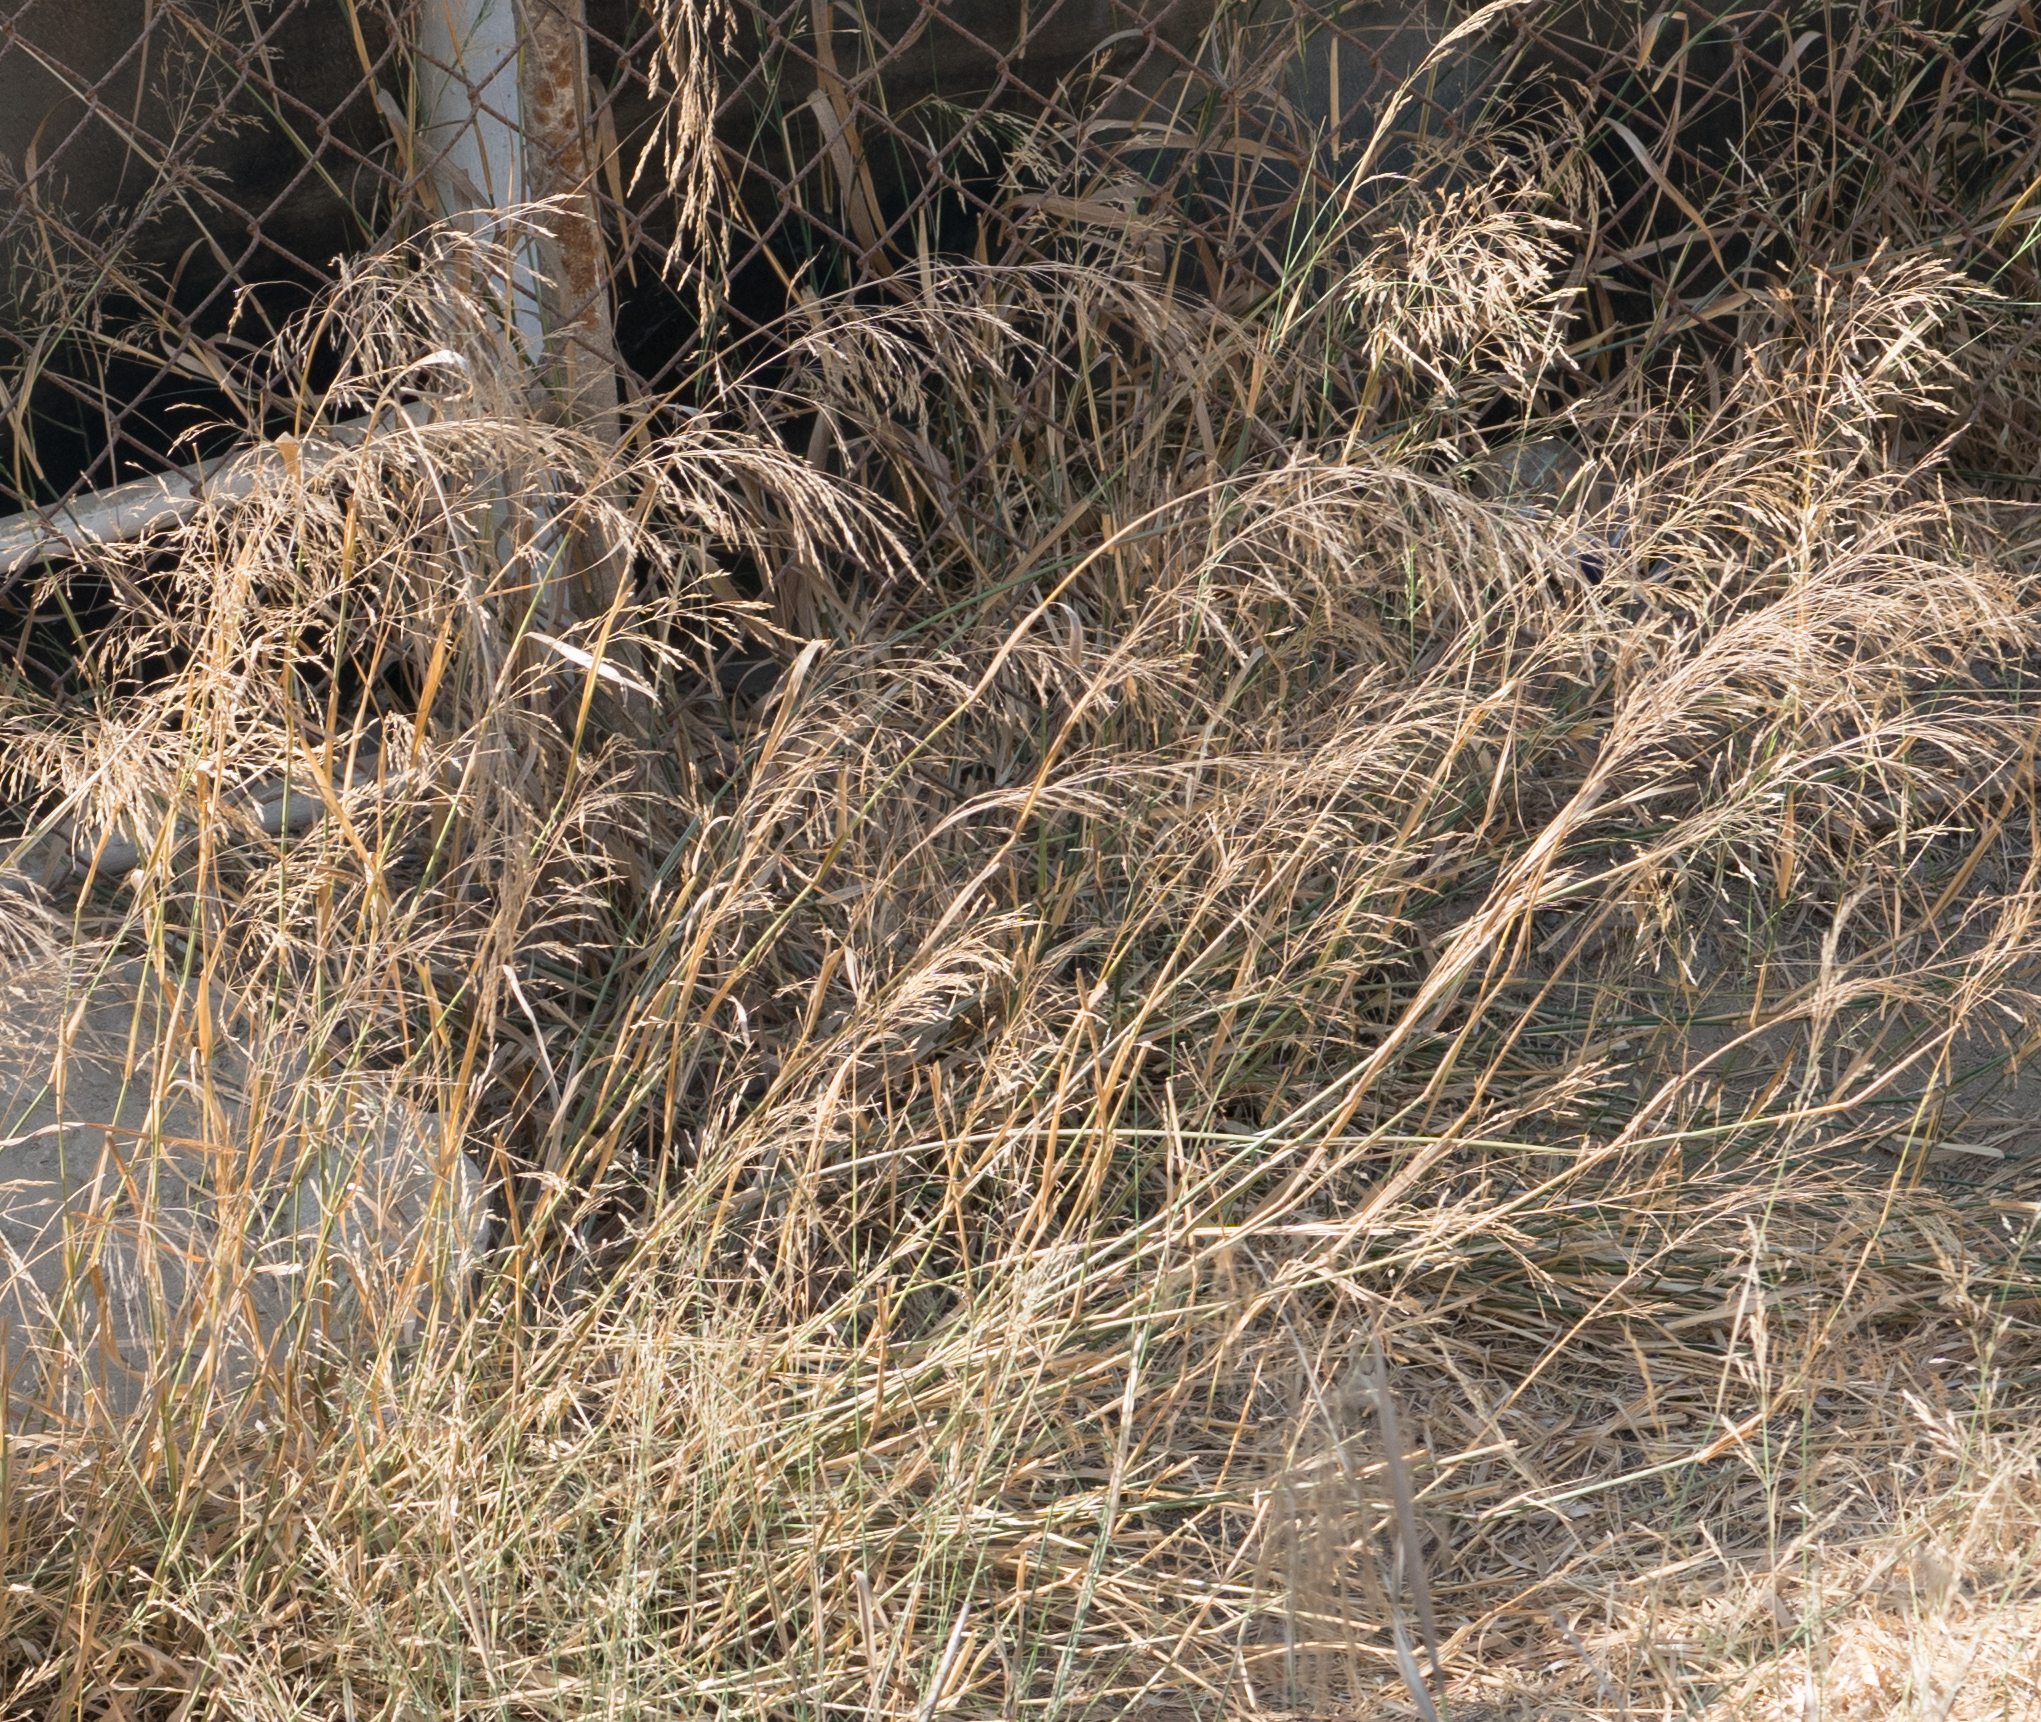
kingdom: Plantae
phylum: Tracheophyta
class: Liliopsida
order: Poales
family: Poaceae
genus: Oloptum
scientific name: Oloptum miliaceum
